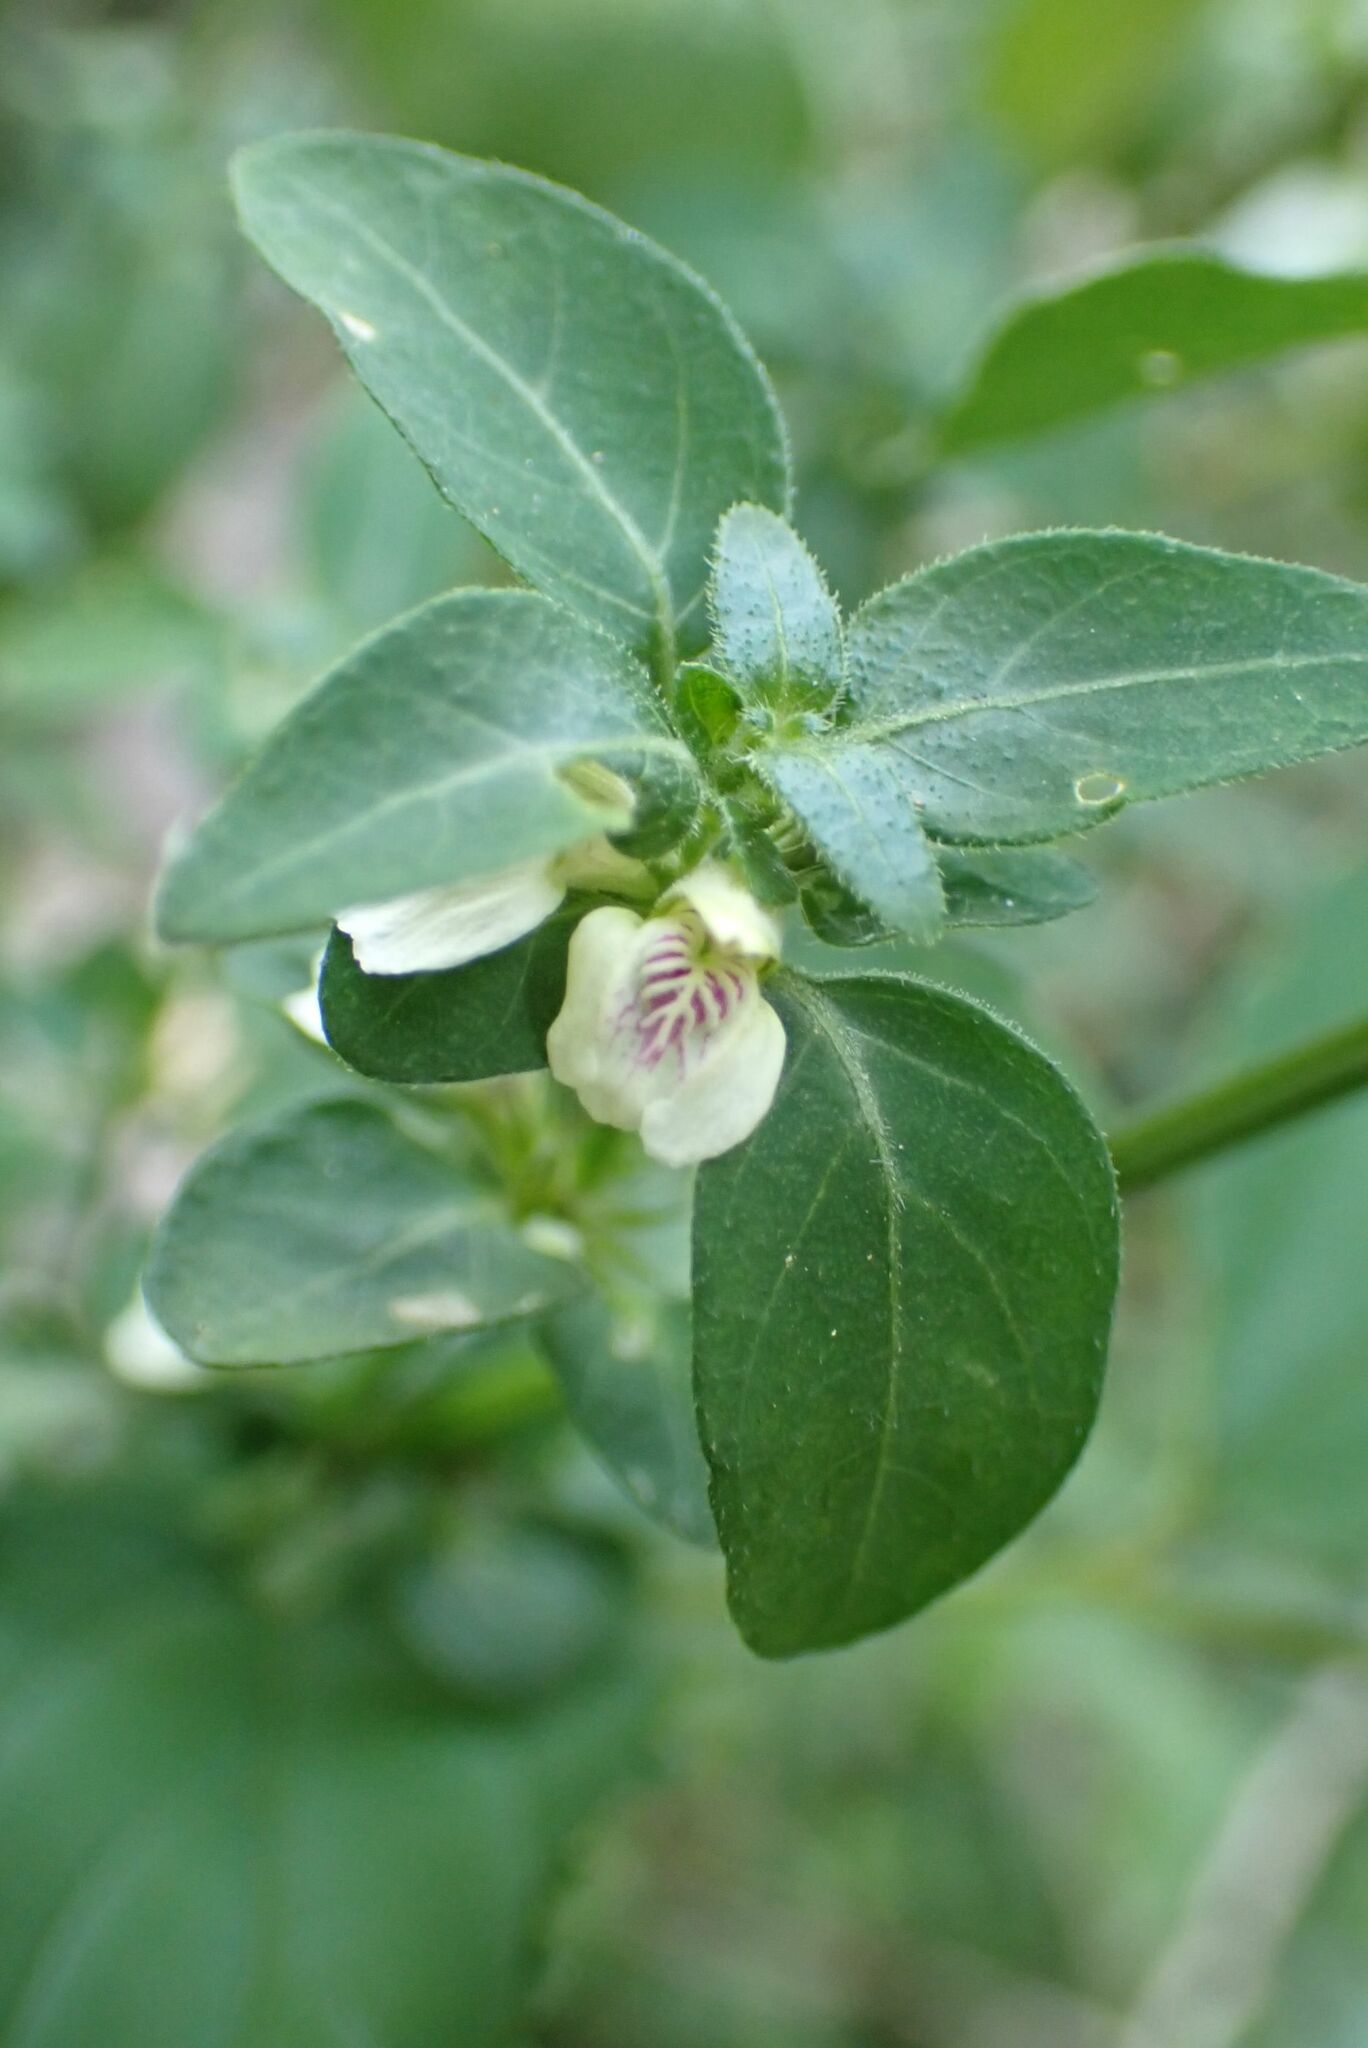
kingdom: Plantae
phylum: Tracheophyta
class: Magnoliopsida
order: Lamiales
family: Acanthaceae
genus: Justicia
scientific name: Justicia protracta
